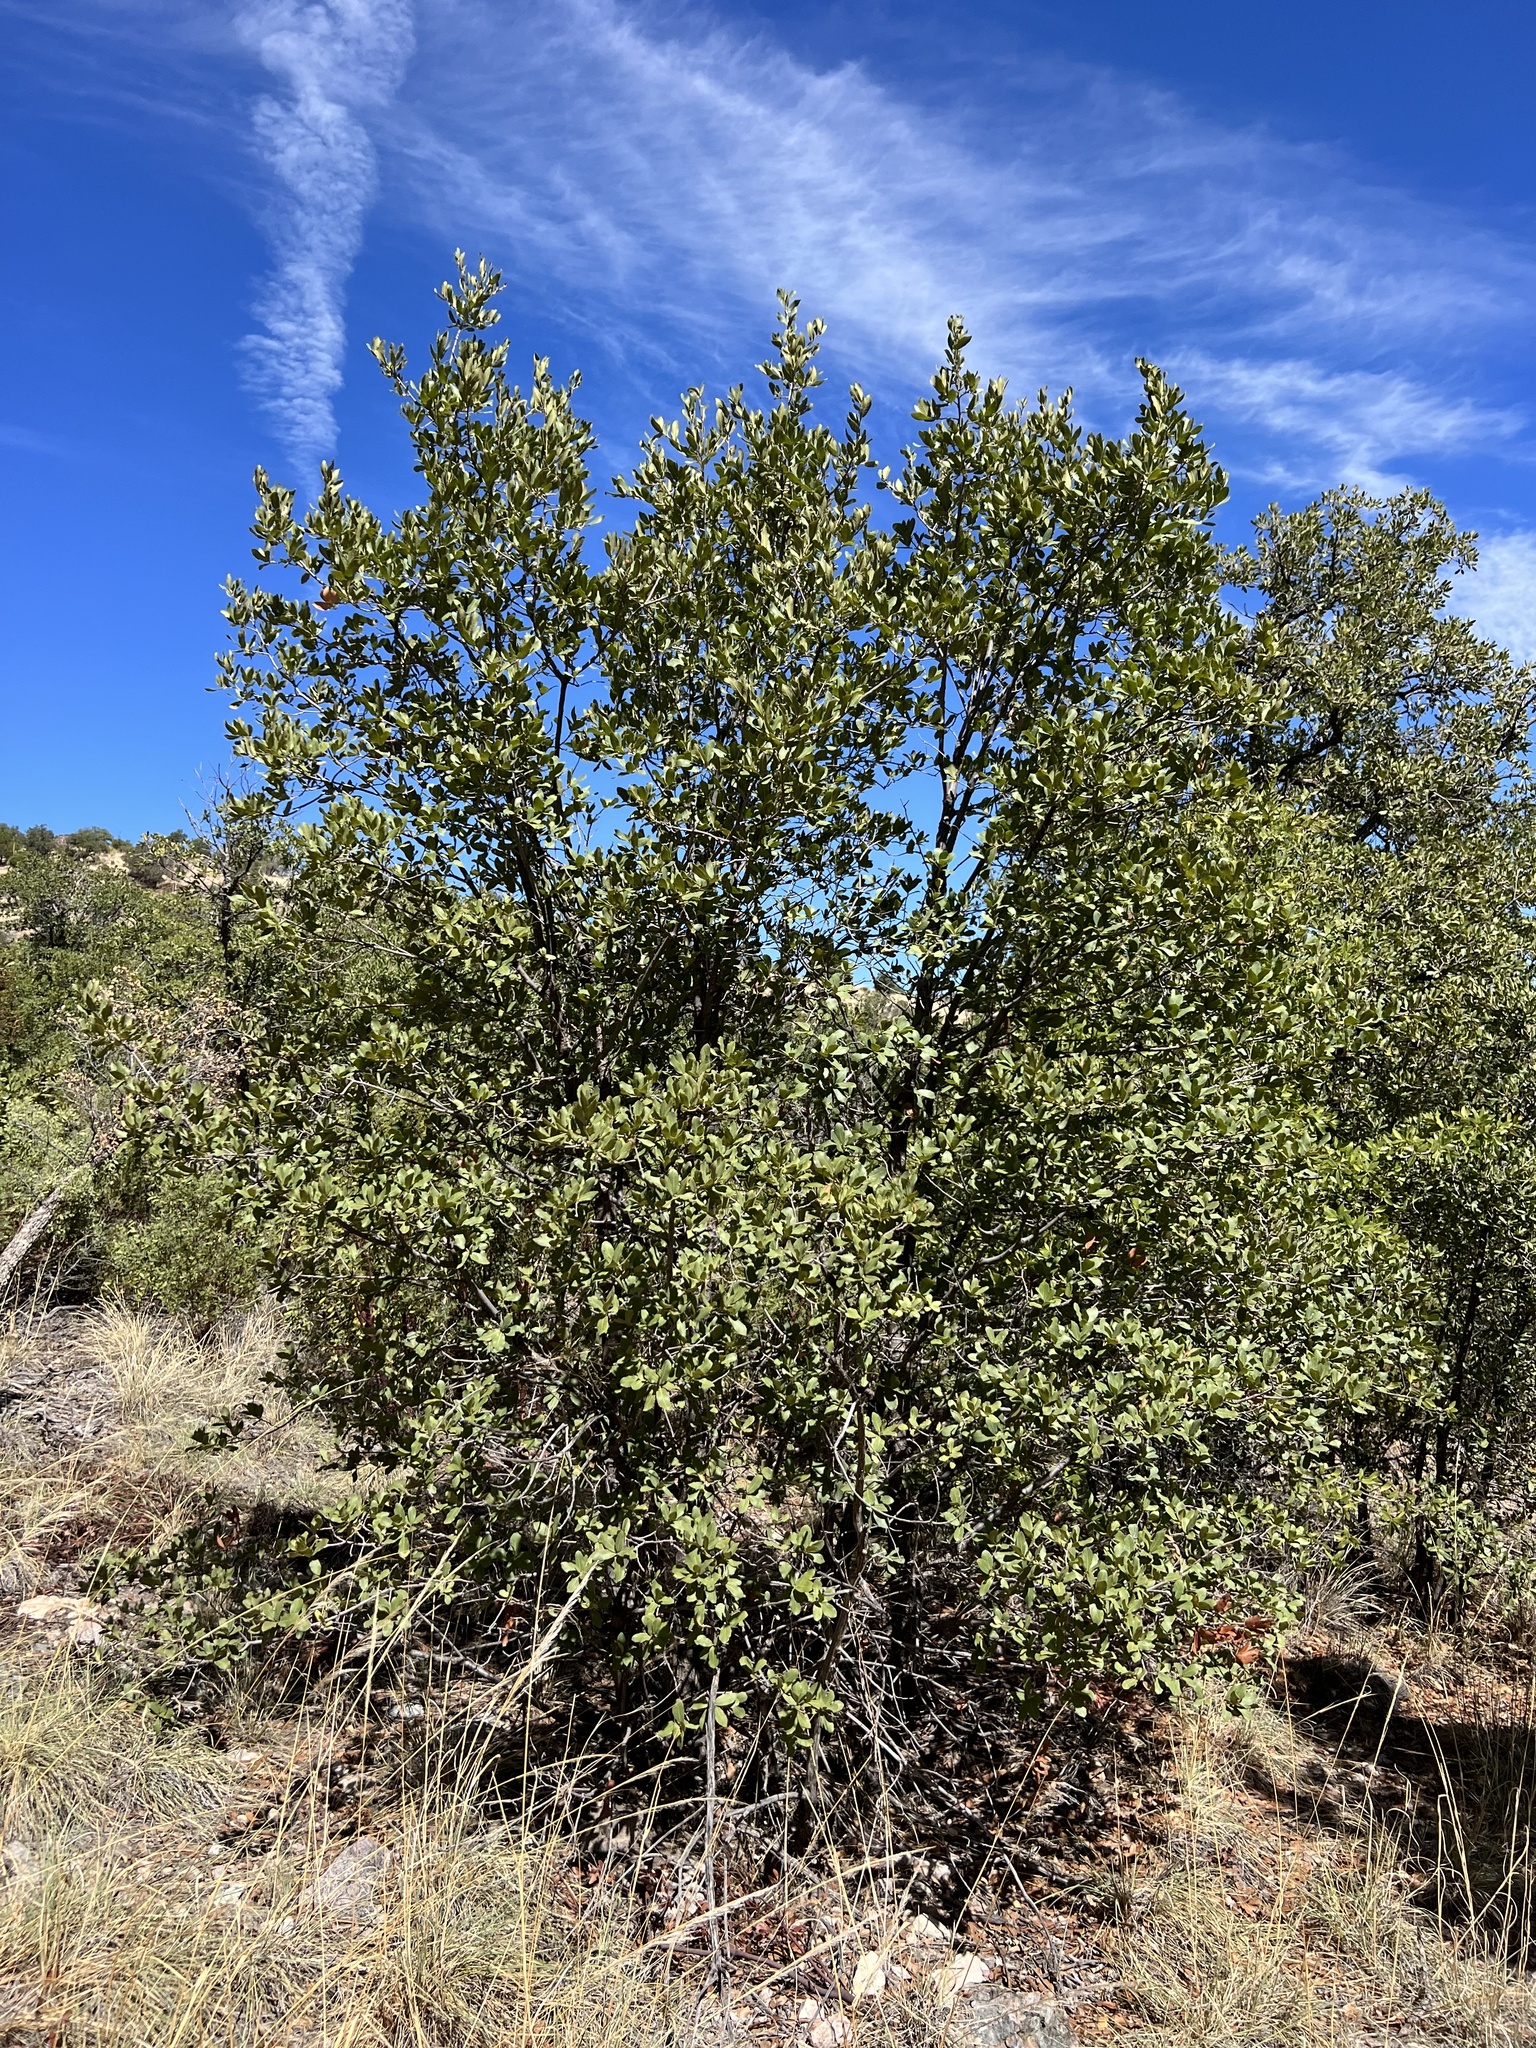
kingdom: Plantae
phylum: Tracheophyta
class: Magnoliopsida
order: Fagales
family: Fagaceae
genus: Quercus
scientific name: Quercus arizonica
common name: Arizona white oak
